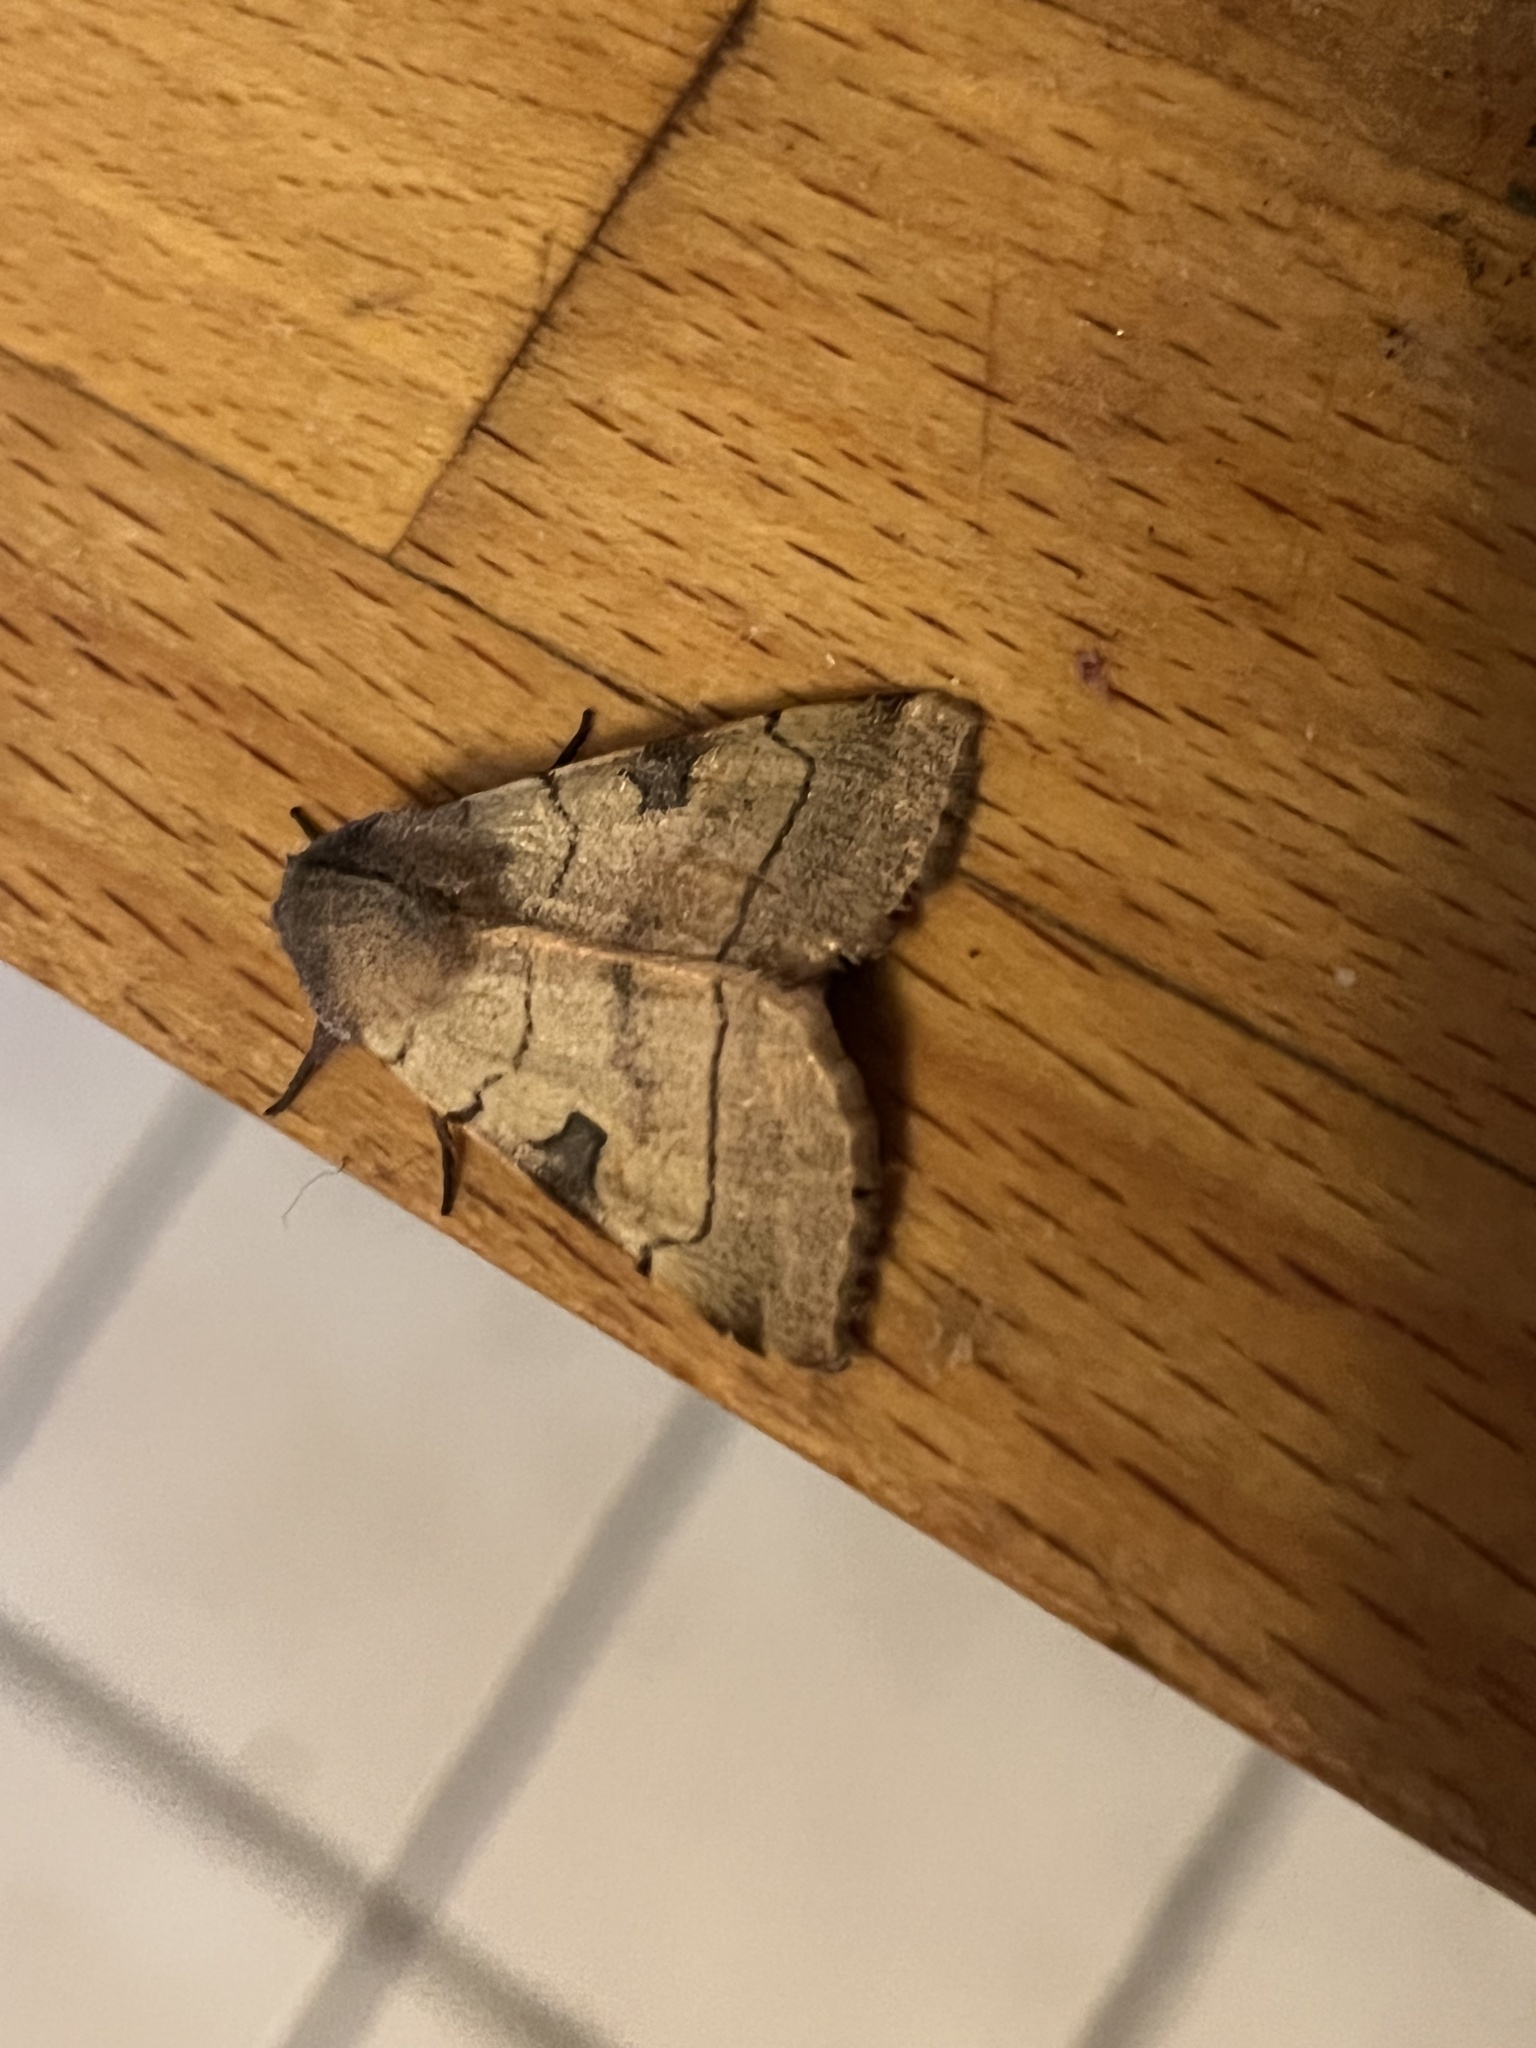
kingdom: Animalia
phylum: Arthropoda
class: Insecta
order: Lepidoptera
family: Noctuidae
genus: Choephora
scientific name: Choephora fungorum
